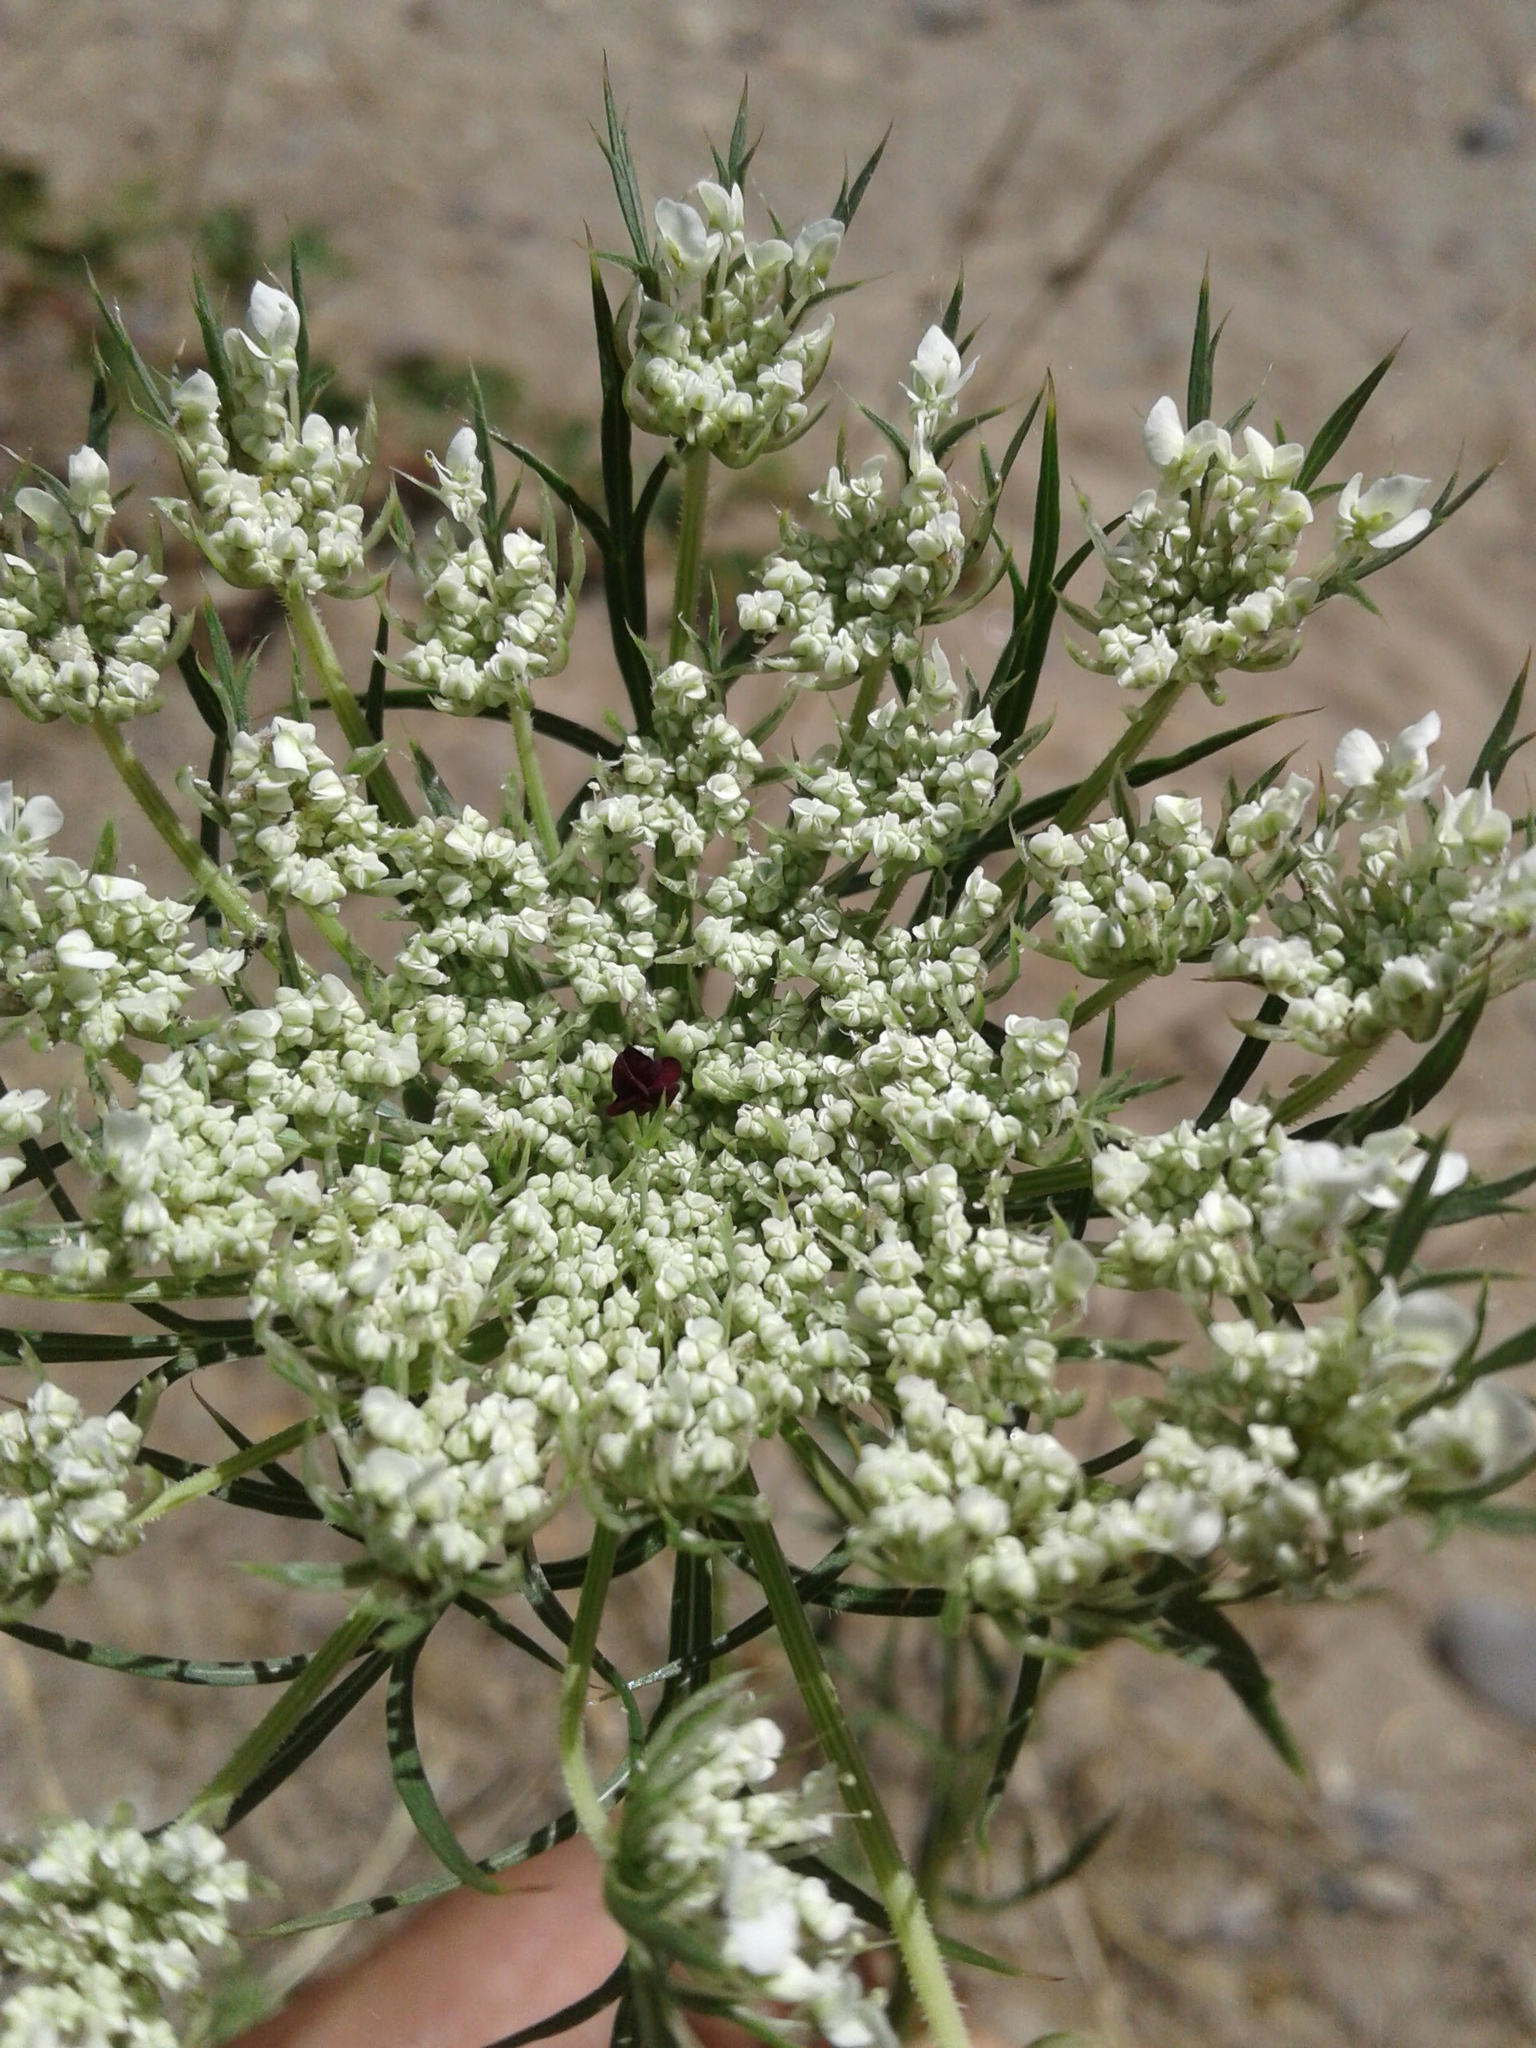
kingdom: Plantae
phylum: Tracheophyta
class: Magnoliopsida
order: Apiales
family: Apiaceae
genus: Daucus
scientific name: Daucus carota
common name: Wild carrot
